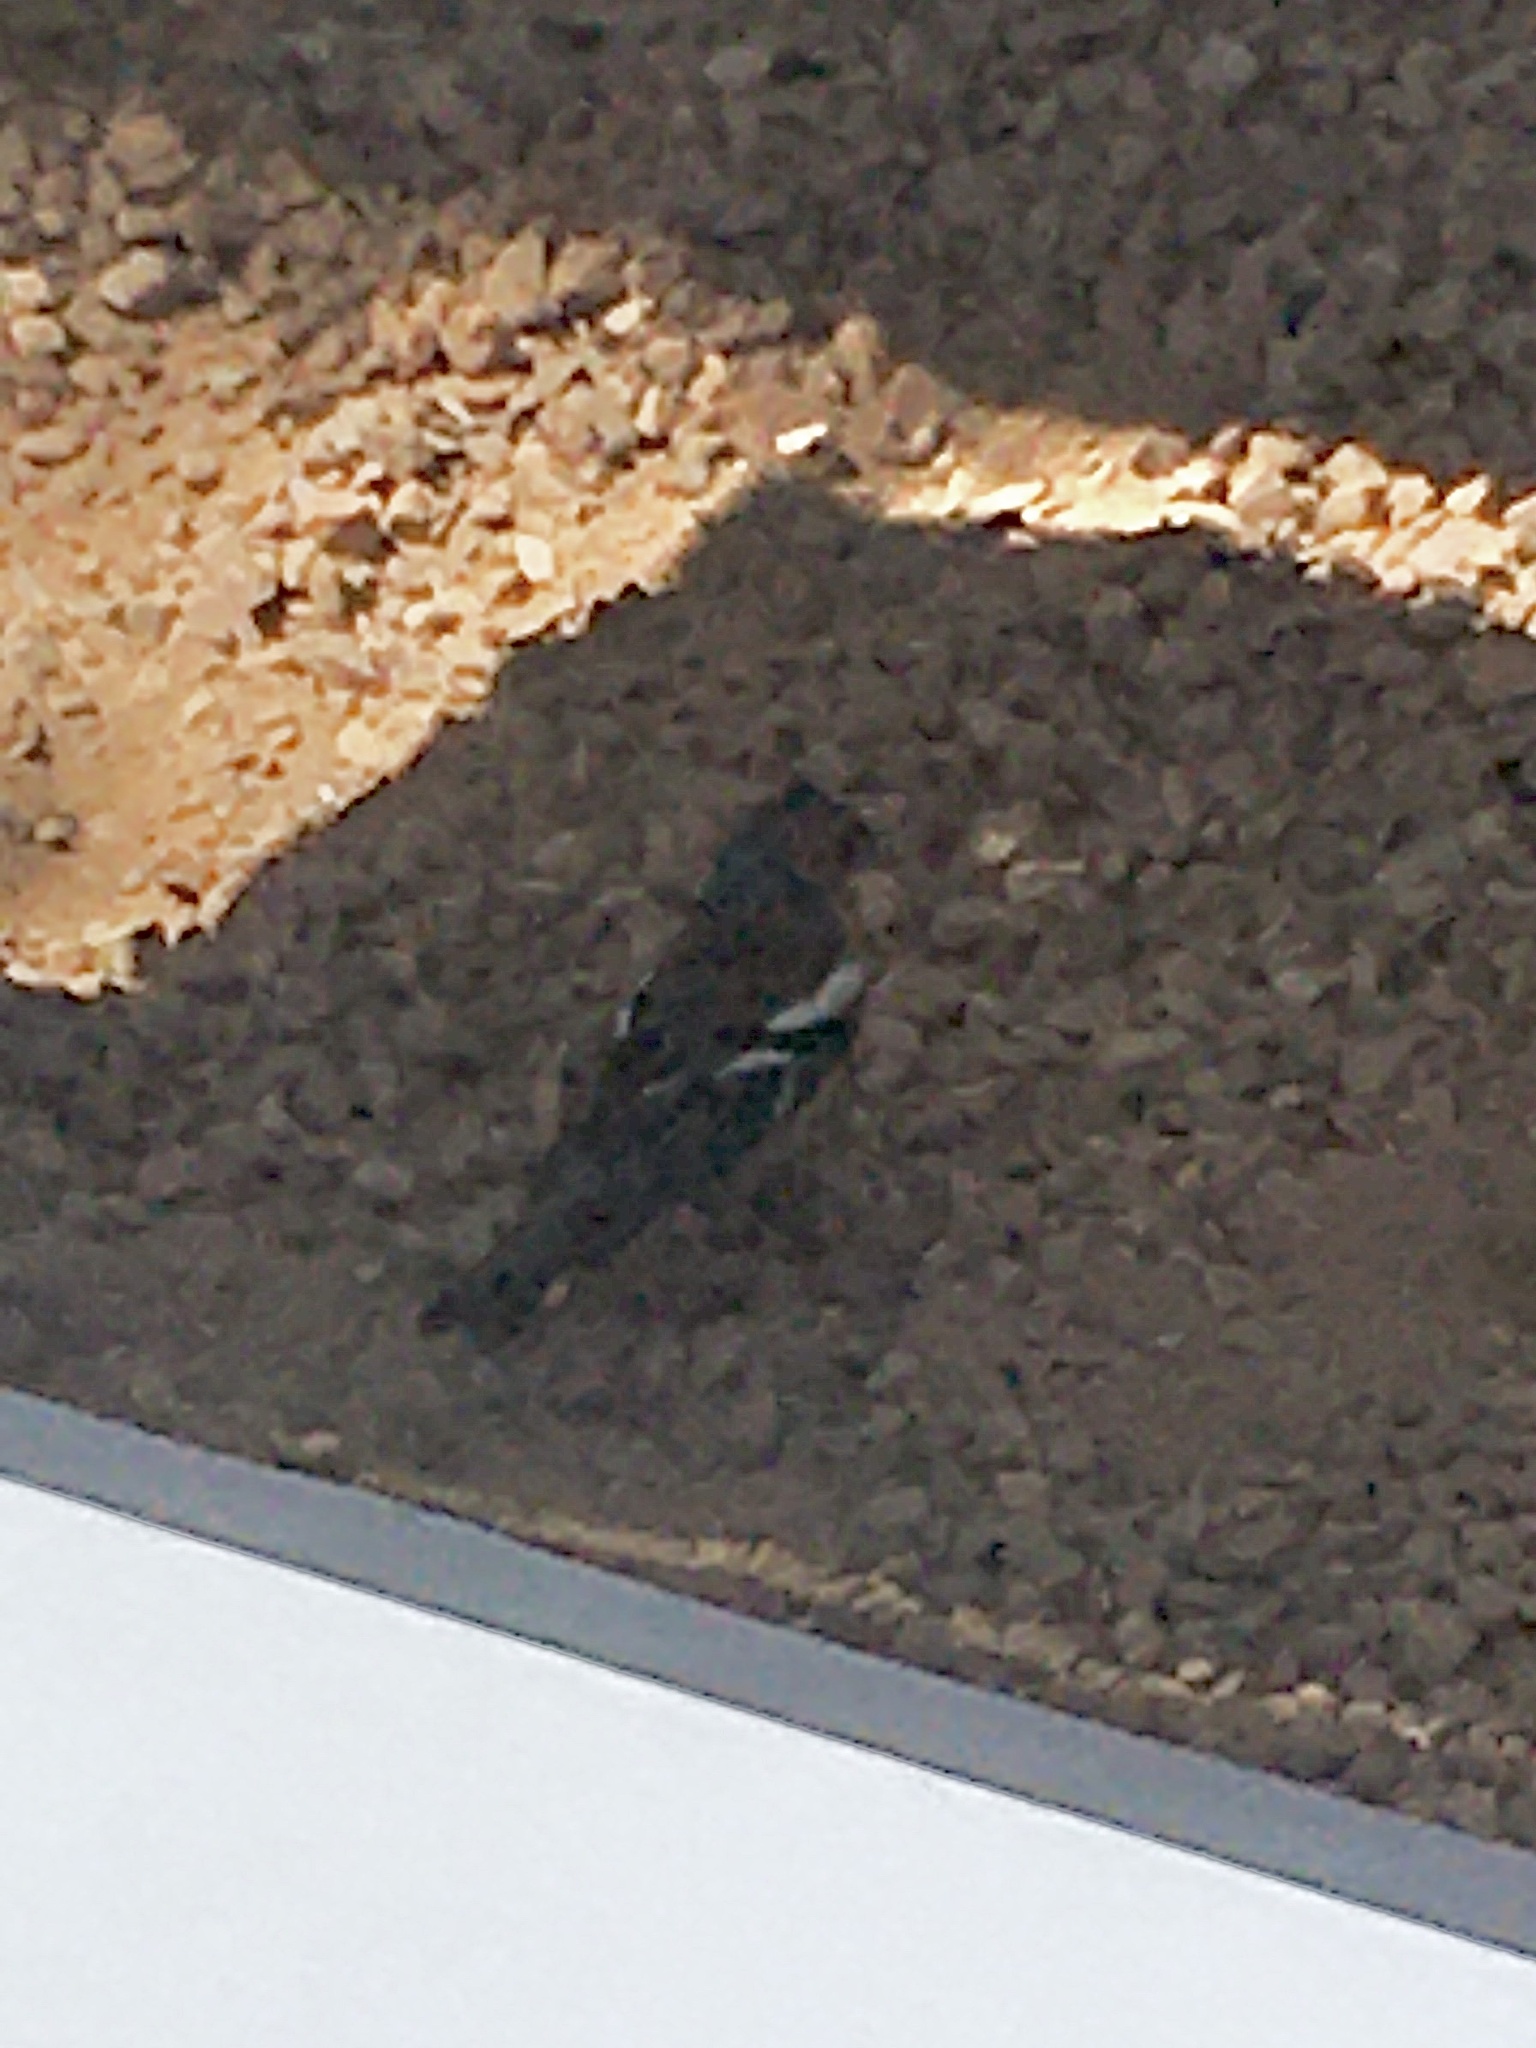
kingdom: Animalia
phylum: Chordata
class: Aves
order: Passeriformes
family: Fringillidae
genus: Fringilla
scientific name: Fringilla coelebs
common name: Common chaffinch
